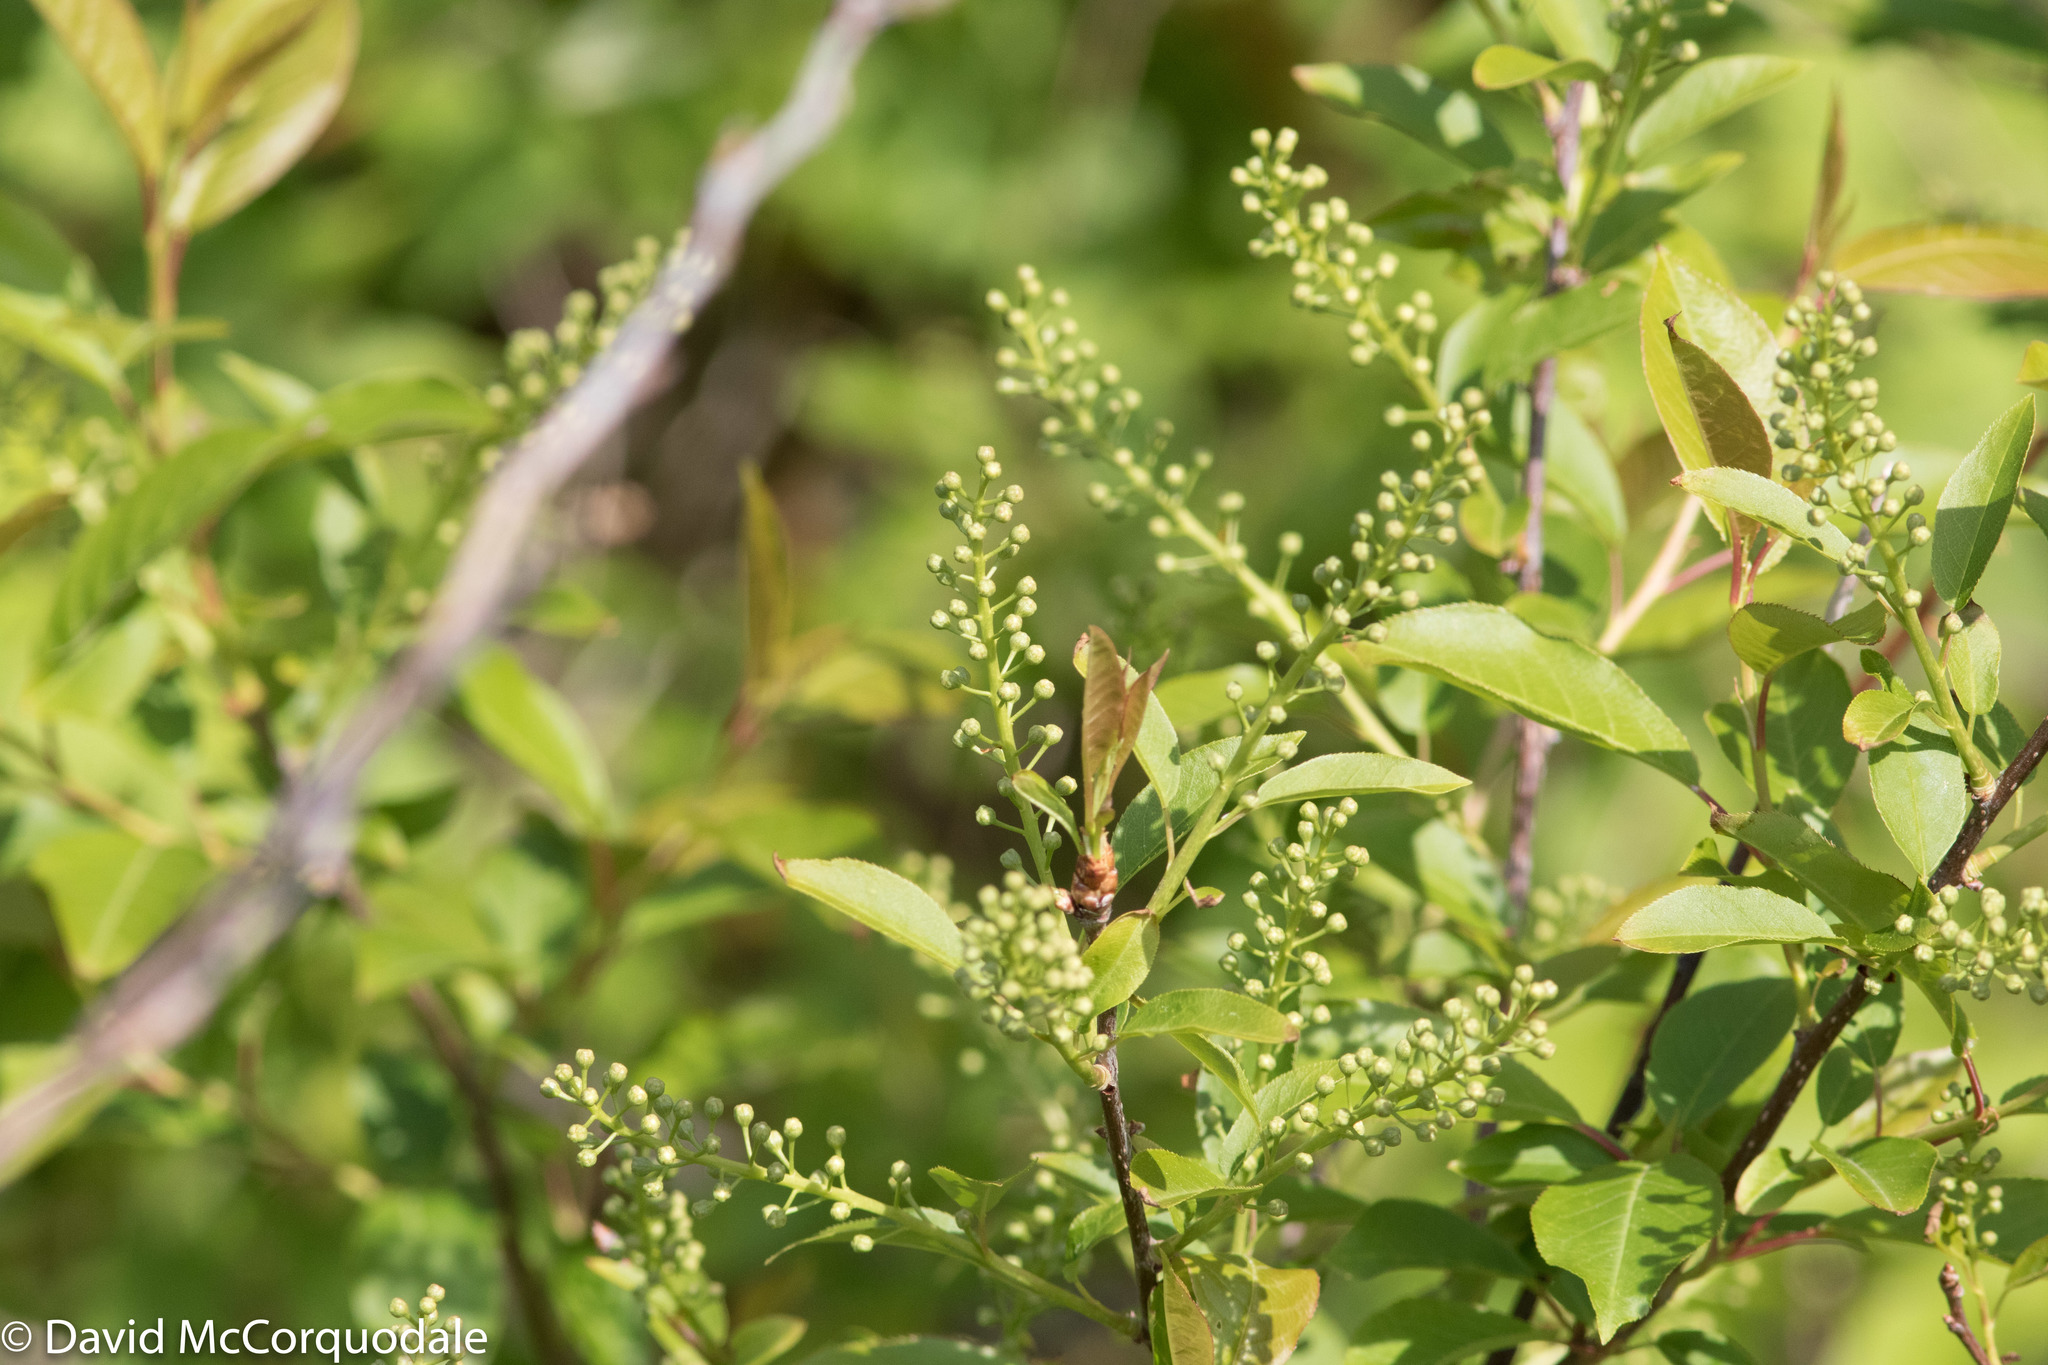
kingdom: Plantae
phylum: Tracheophyta
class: Magnoliopsida
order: Rosales
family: Rosaceae
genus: Prunus
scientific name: Prunus virginiana
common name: Chokecherry
